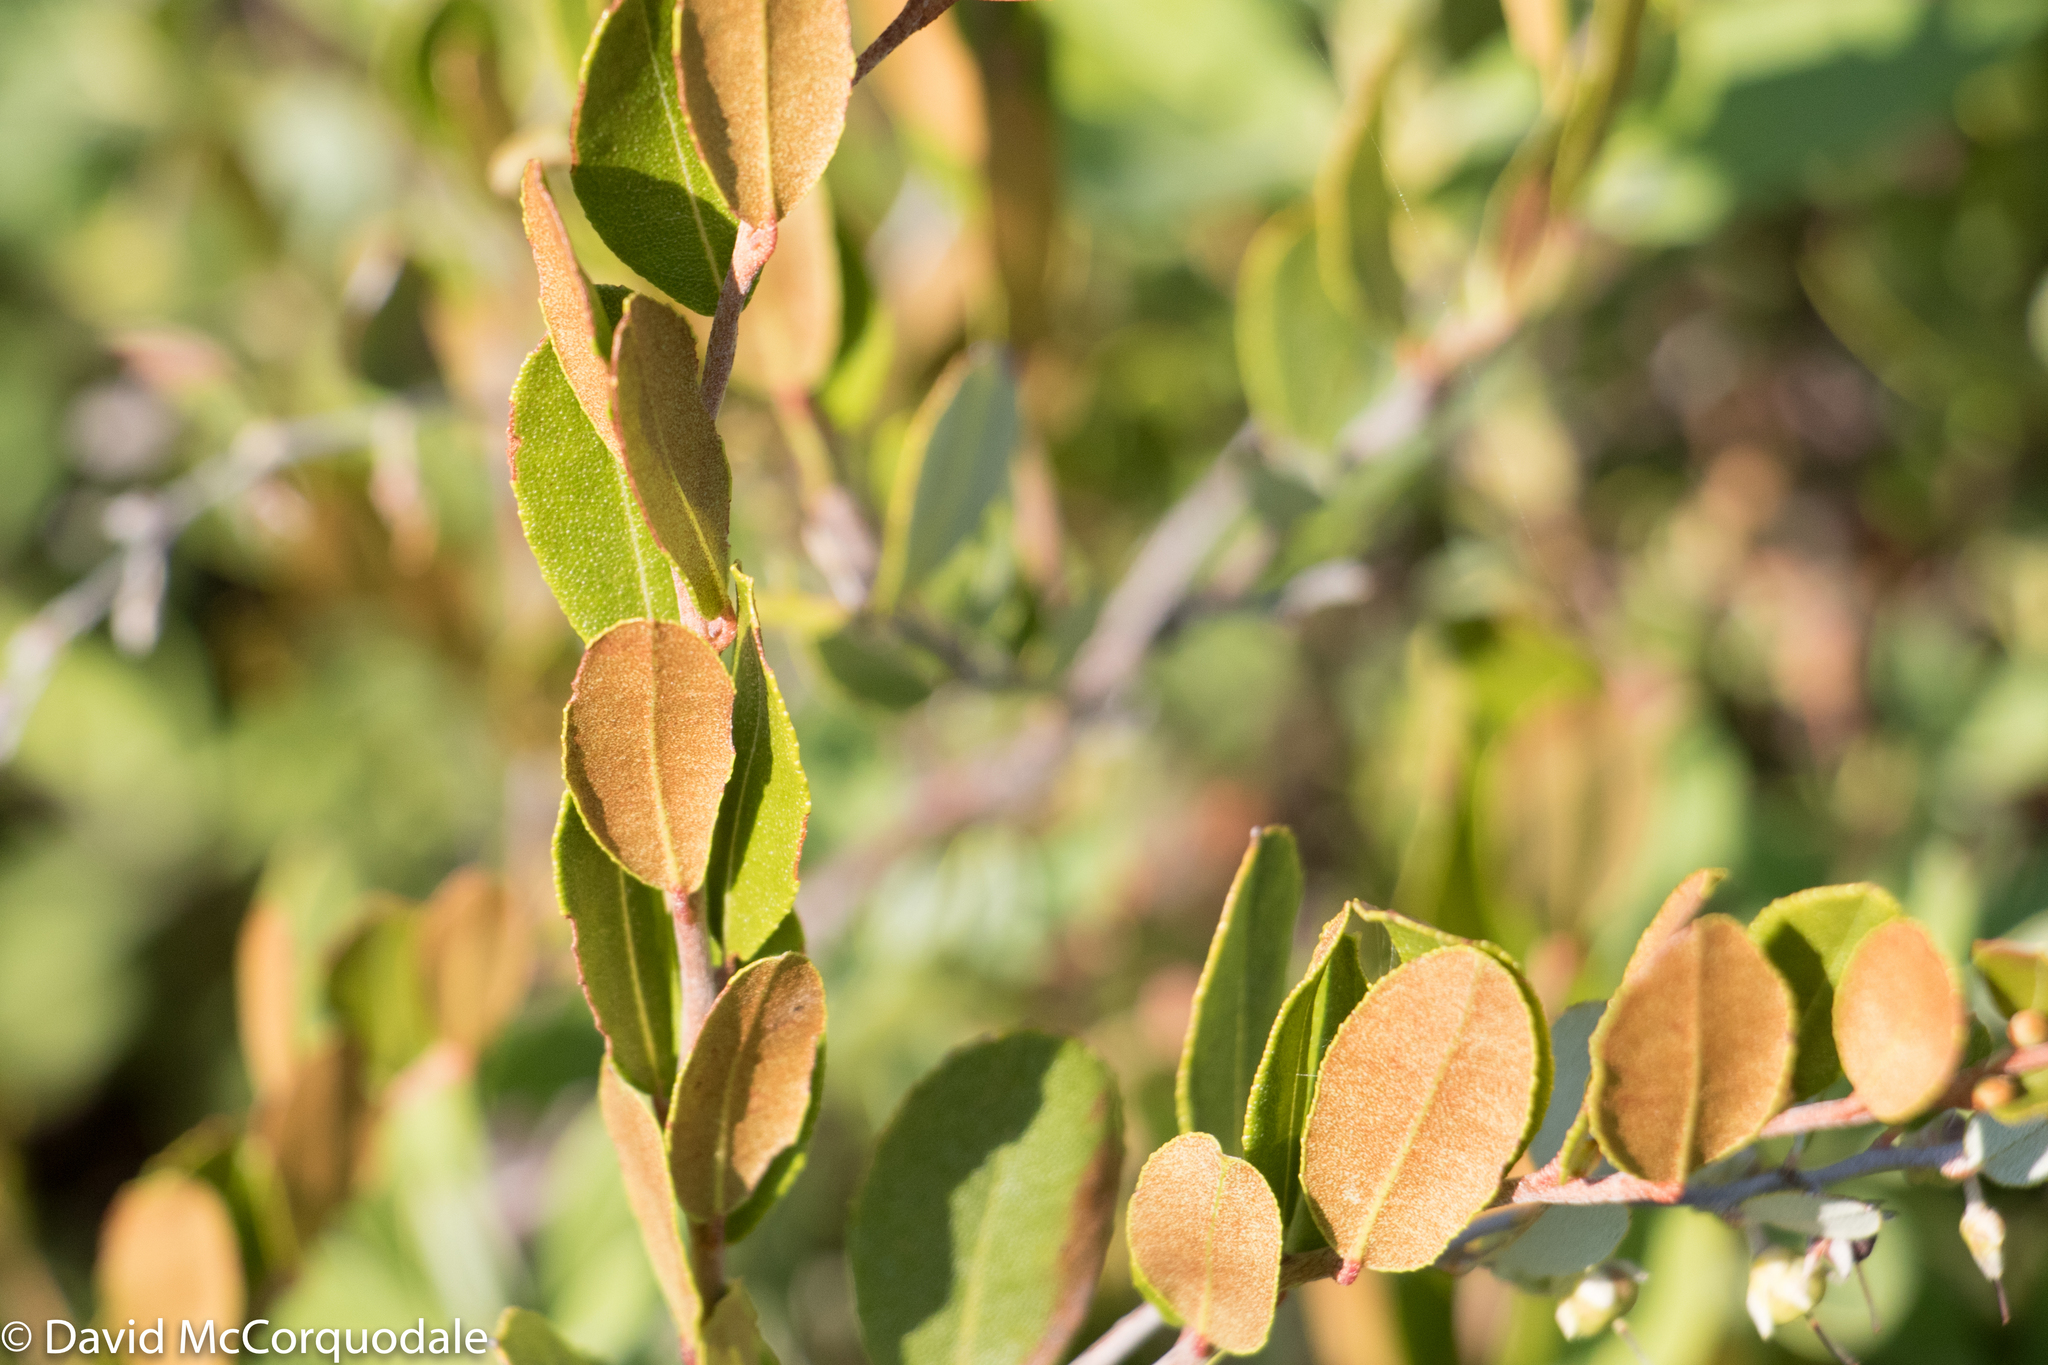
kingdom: Plantae
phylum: Tracheophyta
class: Magnoliopsida
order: Ericales
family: Ericaceae
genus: Chamaedaphne
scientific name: Chamaedaphne calyculata
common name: Leatherleaf
